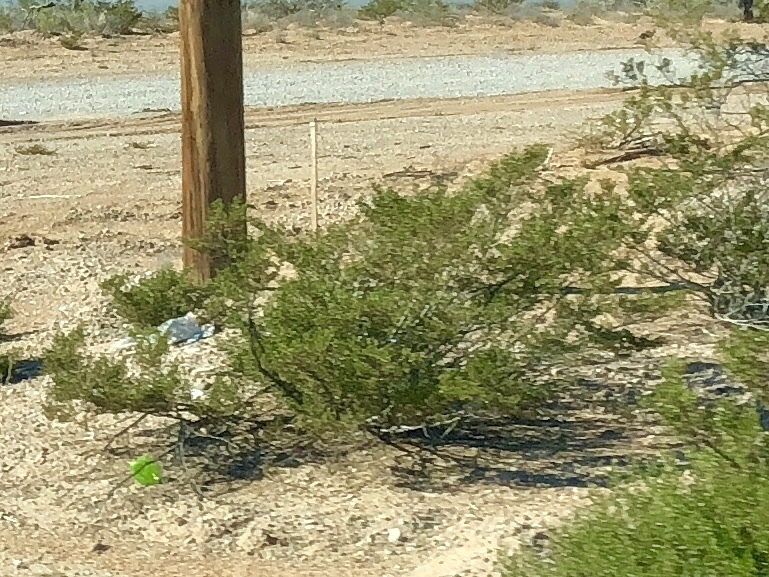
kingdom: Plantae
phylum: Tracheophyta
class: Magnoliopsida
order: Zygophyllales
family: Zygophyllaceae
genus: Larrea
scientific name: Larrea tridentata
